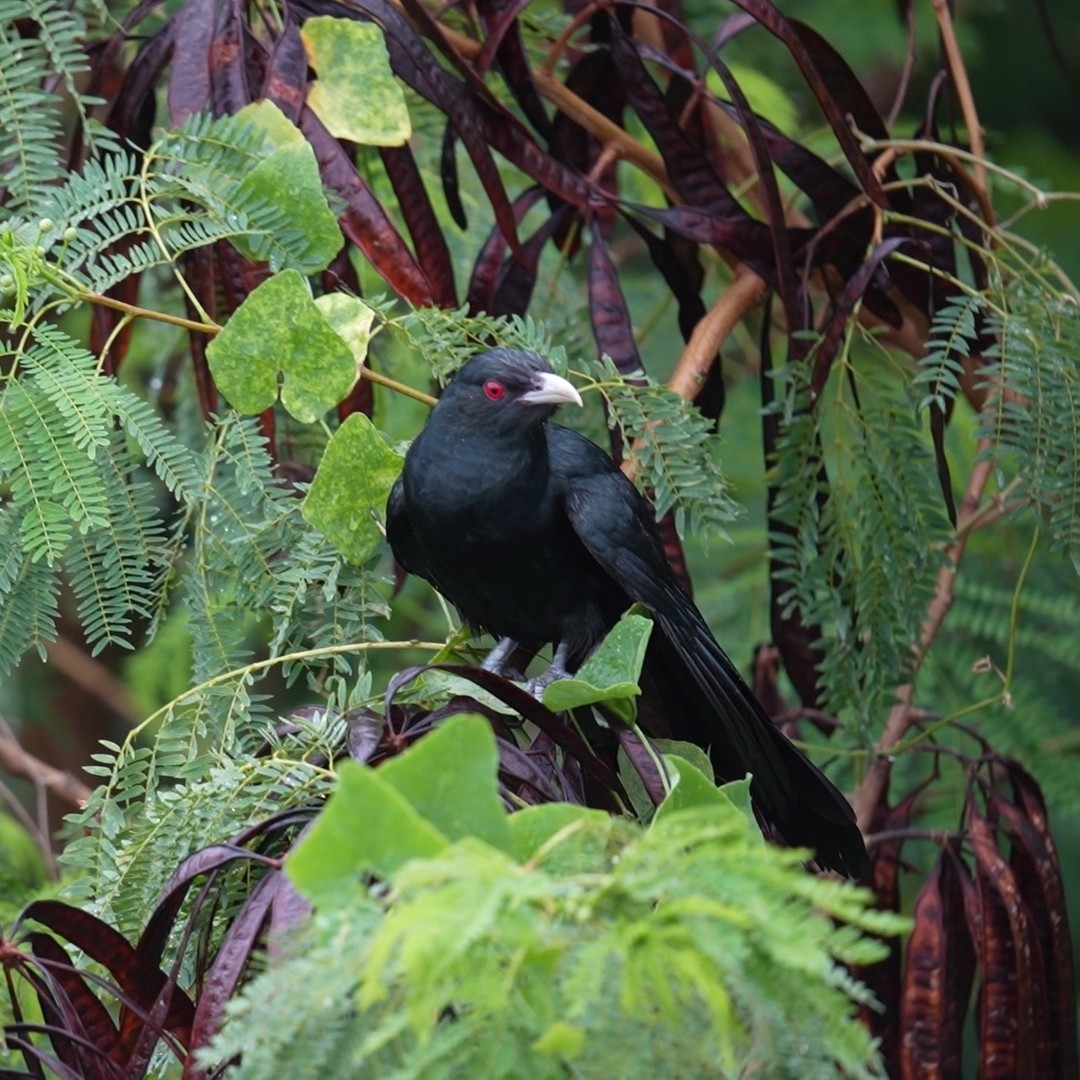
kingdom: Animalia
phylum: Chordata
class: Aves
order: Cuculiformes
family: Cuculidae
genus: Eudynamys
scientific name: Eudynamys scolopaceus
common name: Asian koel
